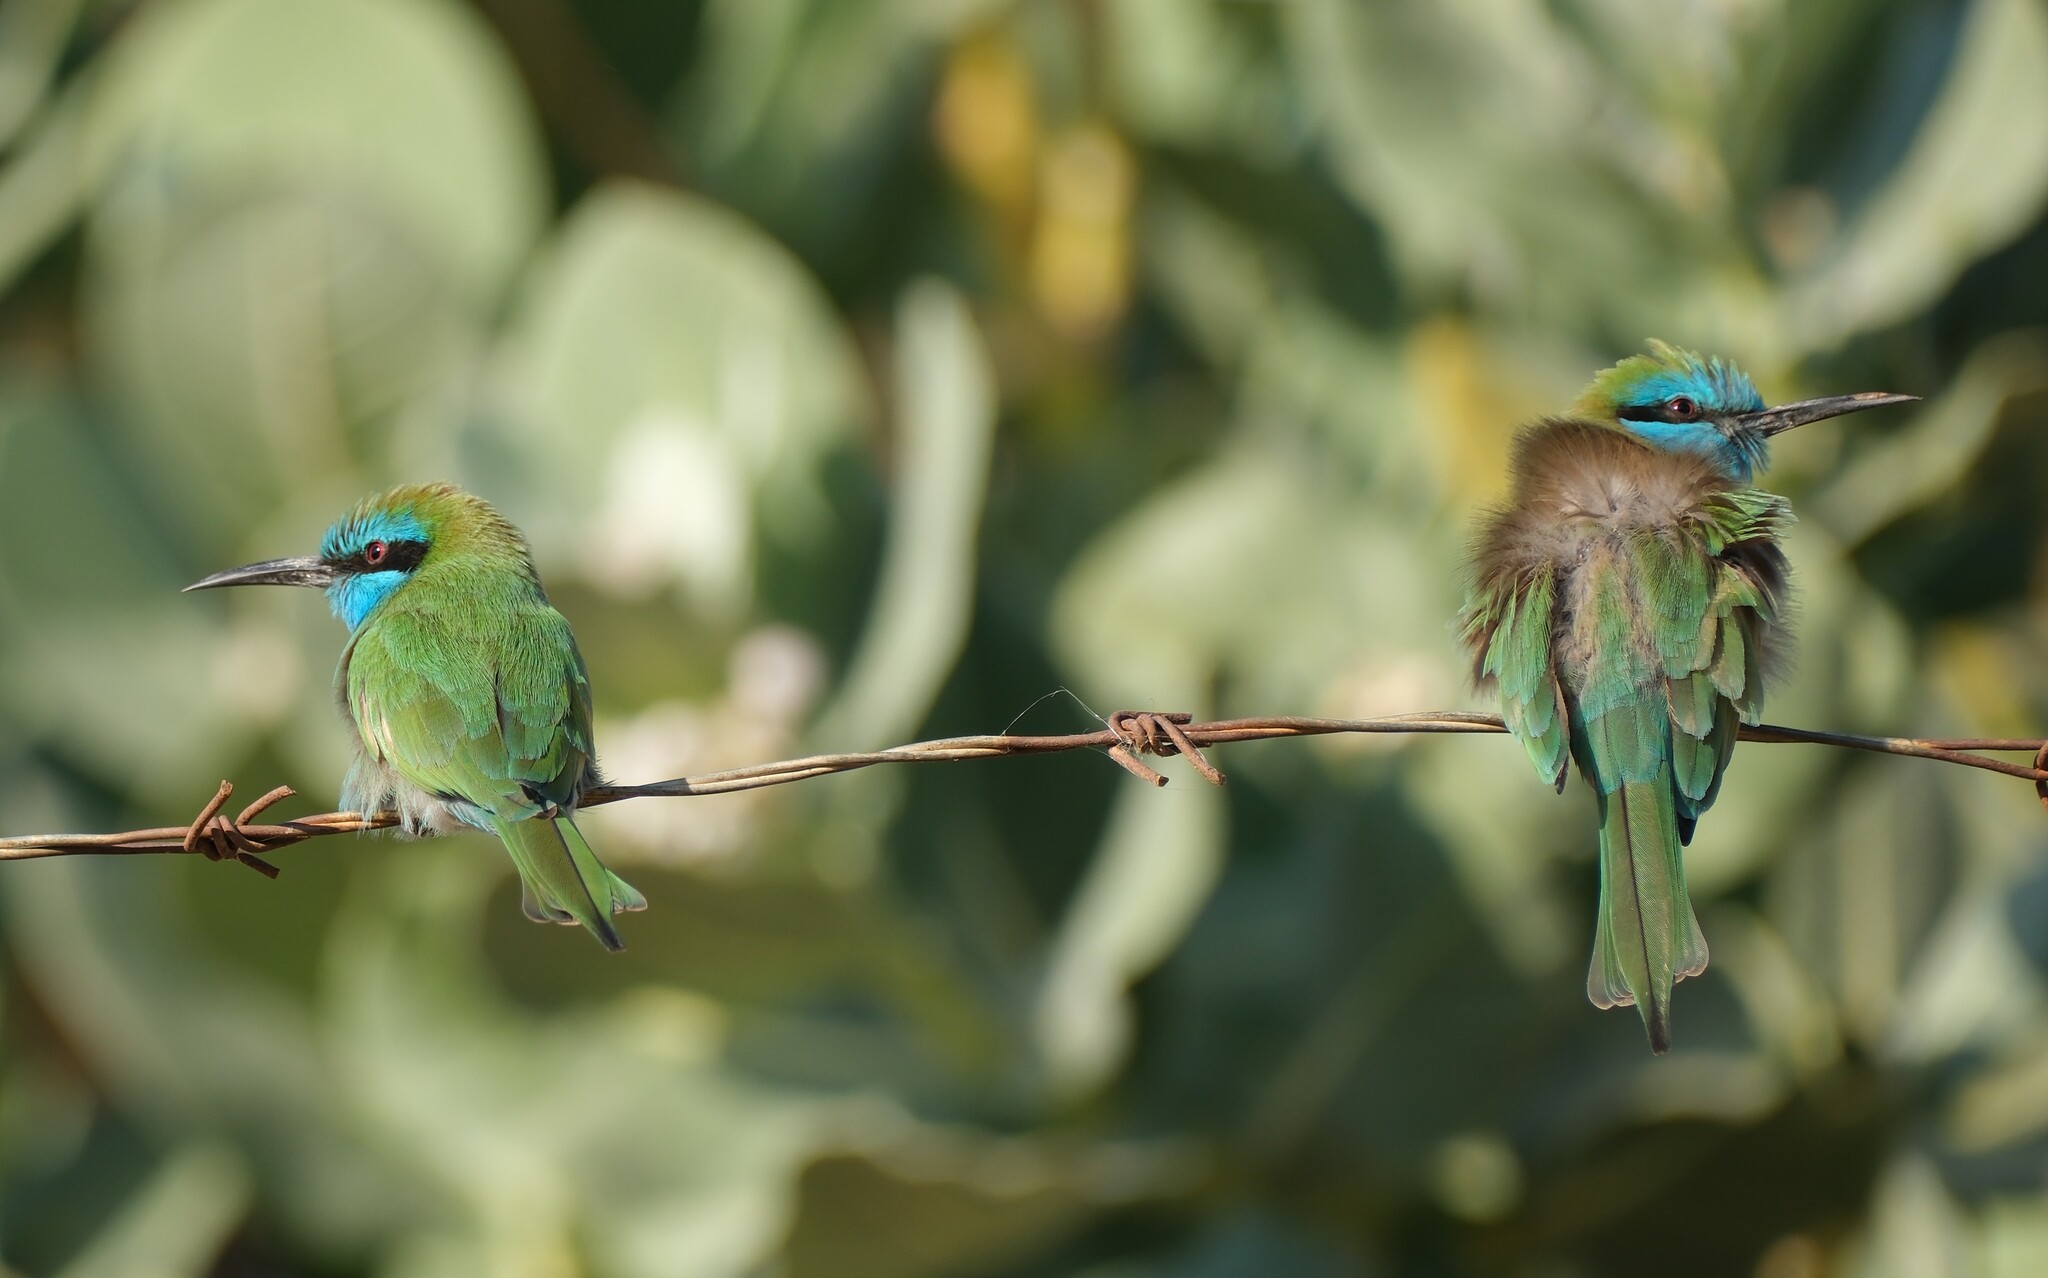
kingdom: Animalia
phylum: Chordata
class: Aves
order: Coraciiformes
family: Meropidae
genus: Merops
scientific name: Merops cyanophrys
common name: Arabian green bee-eater
